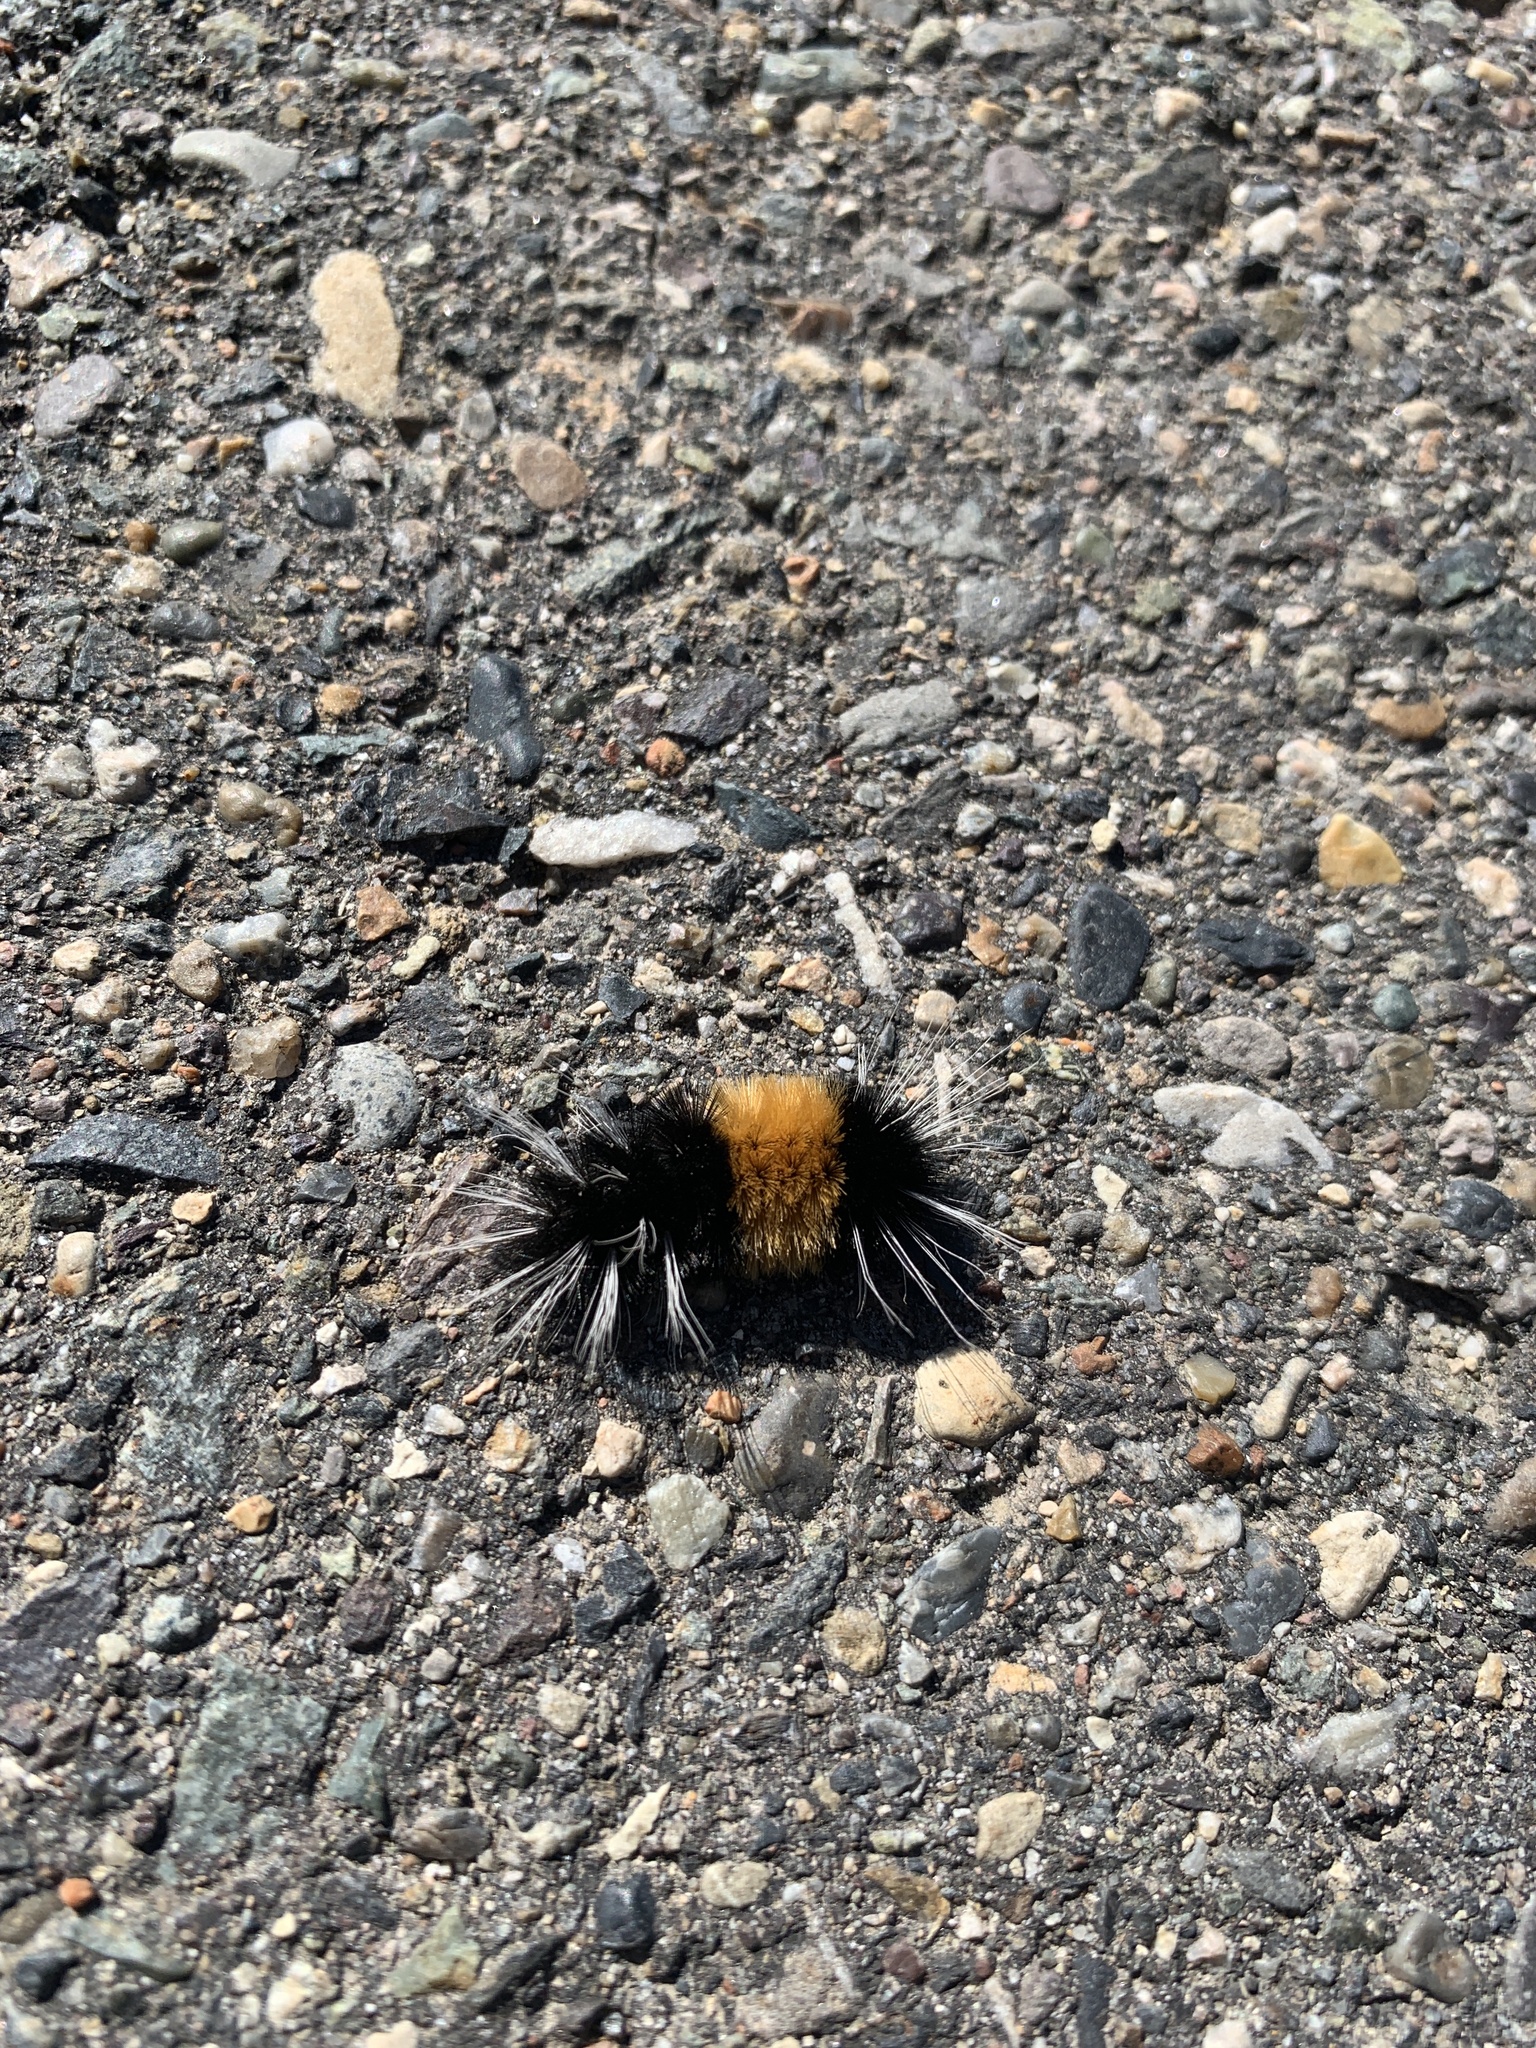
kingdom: Animalia
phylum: Arthropoda
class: Insecta
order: Lepidoptera
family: Erebidae
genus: Lophocampa
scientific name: Lophocampa maculata
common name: Spotted tussock moth
